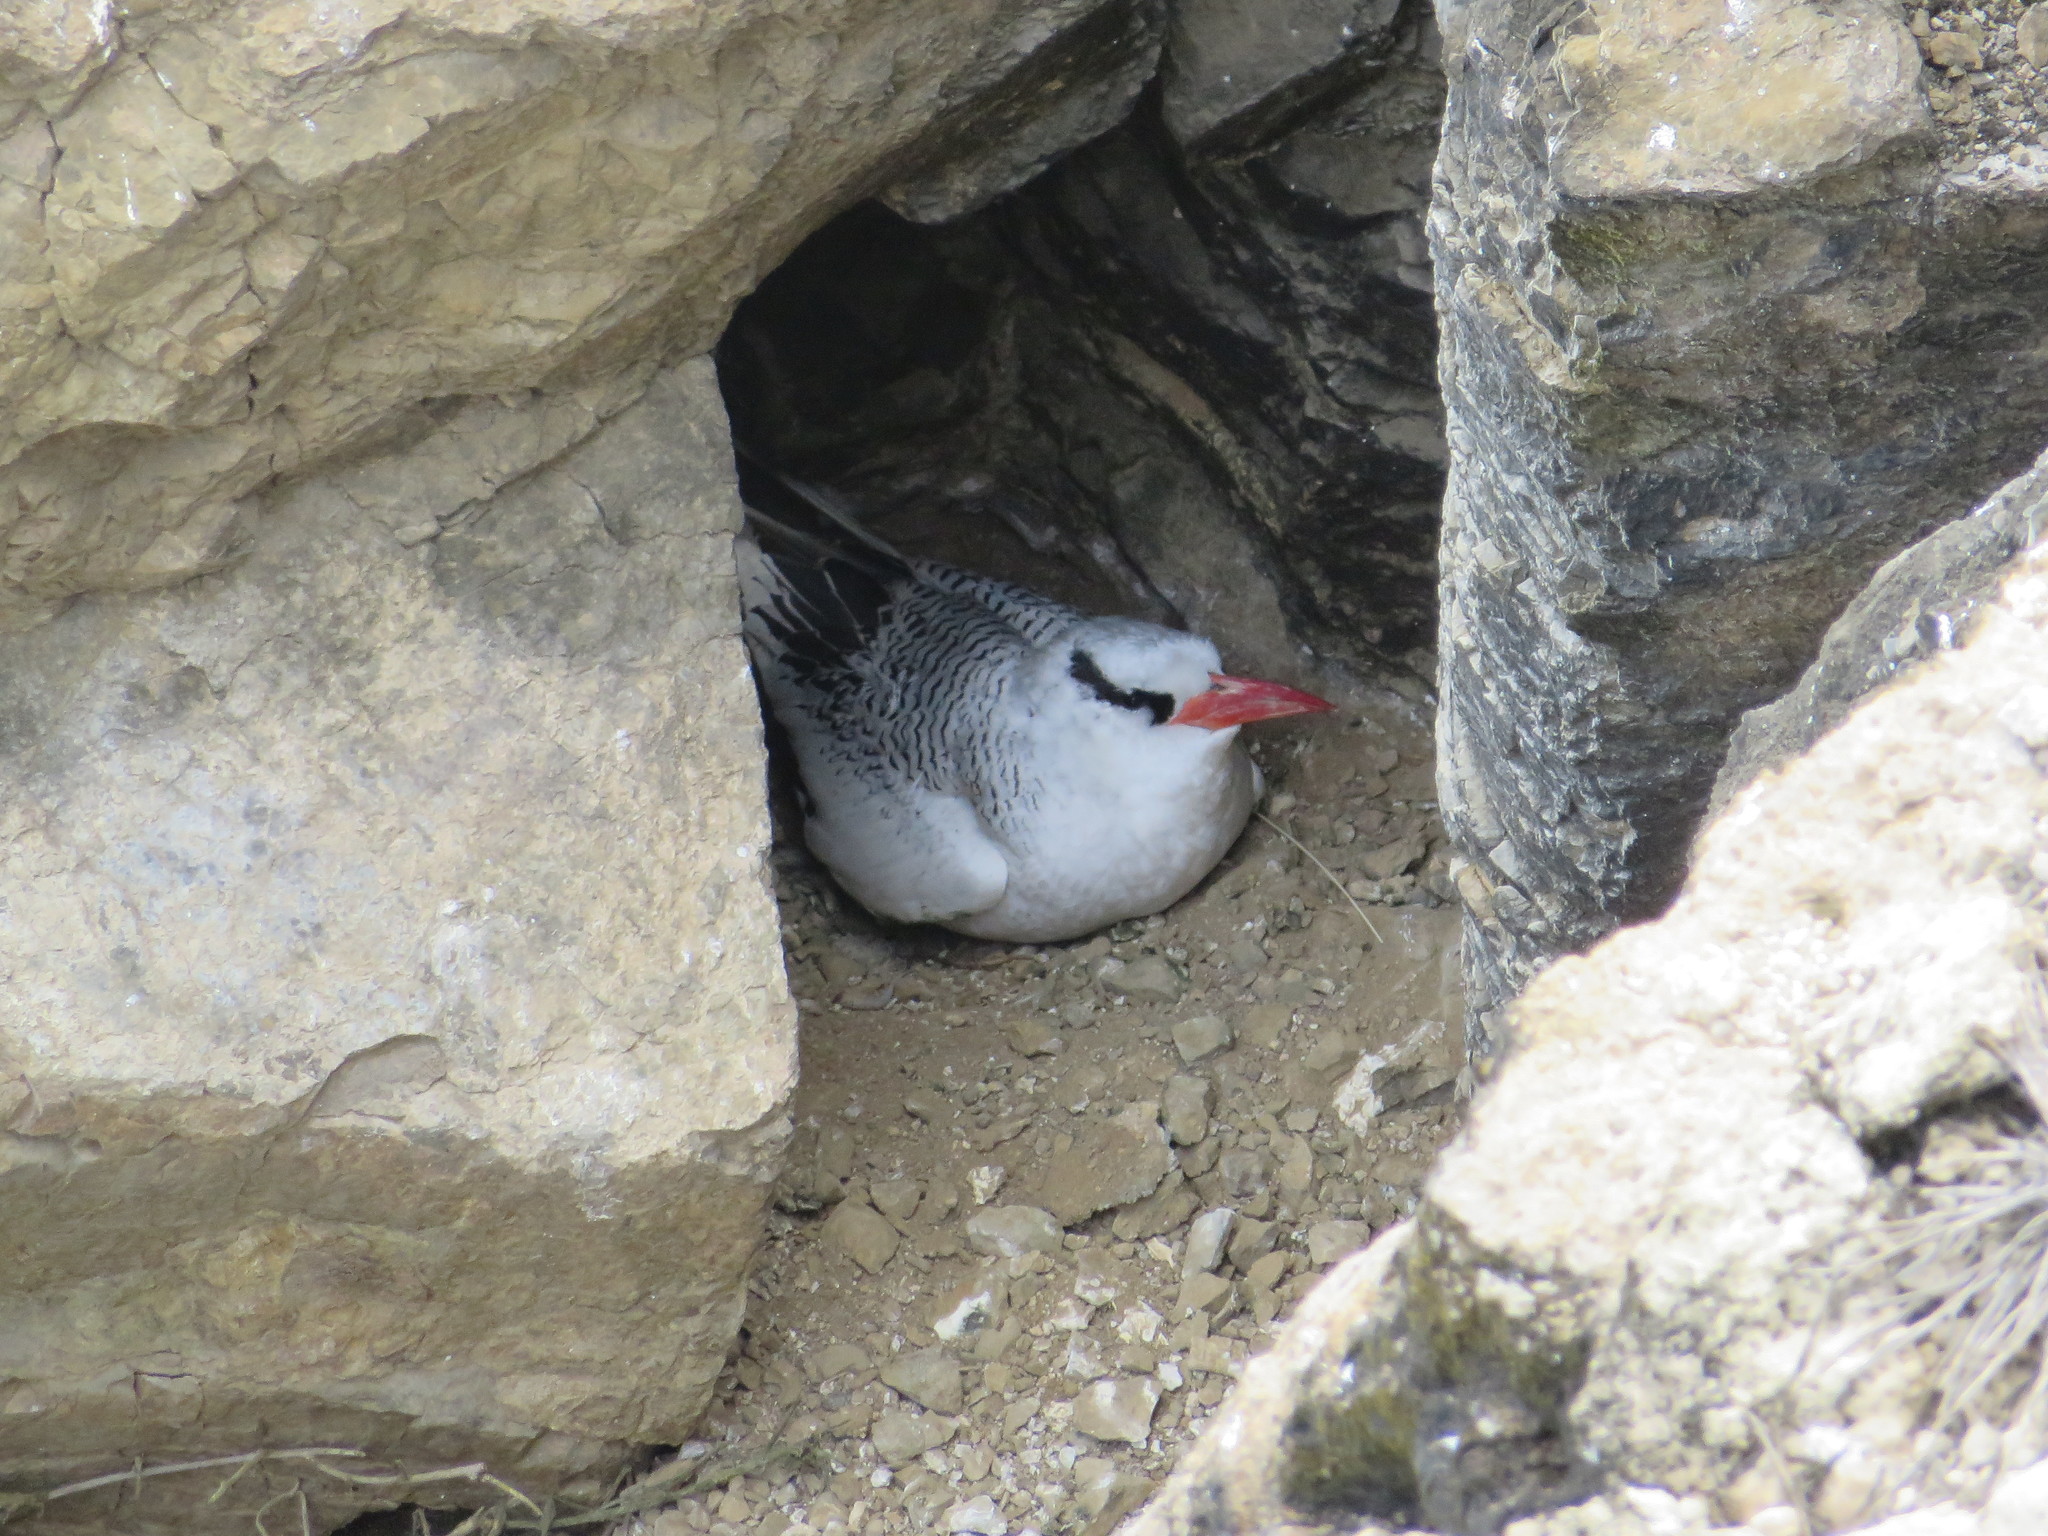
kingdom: Animalia
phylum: Chordata
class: Aves
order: Phaethontiformes
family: Phaethontidae
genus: Phaethon
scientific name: Phaethon aethereus
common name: Red-billed tropicbird
